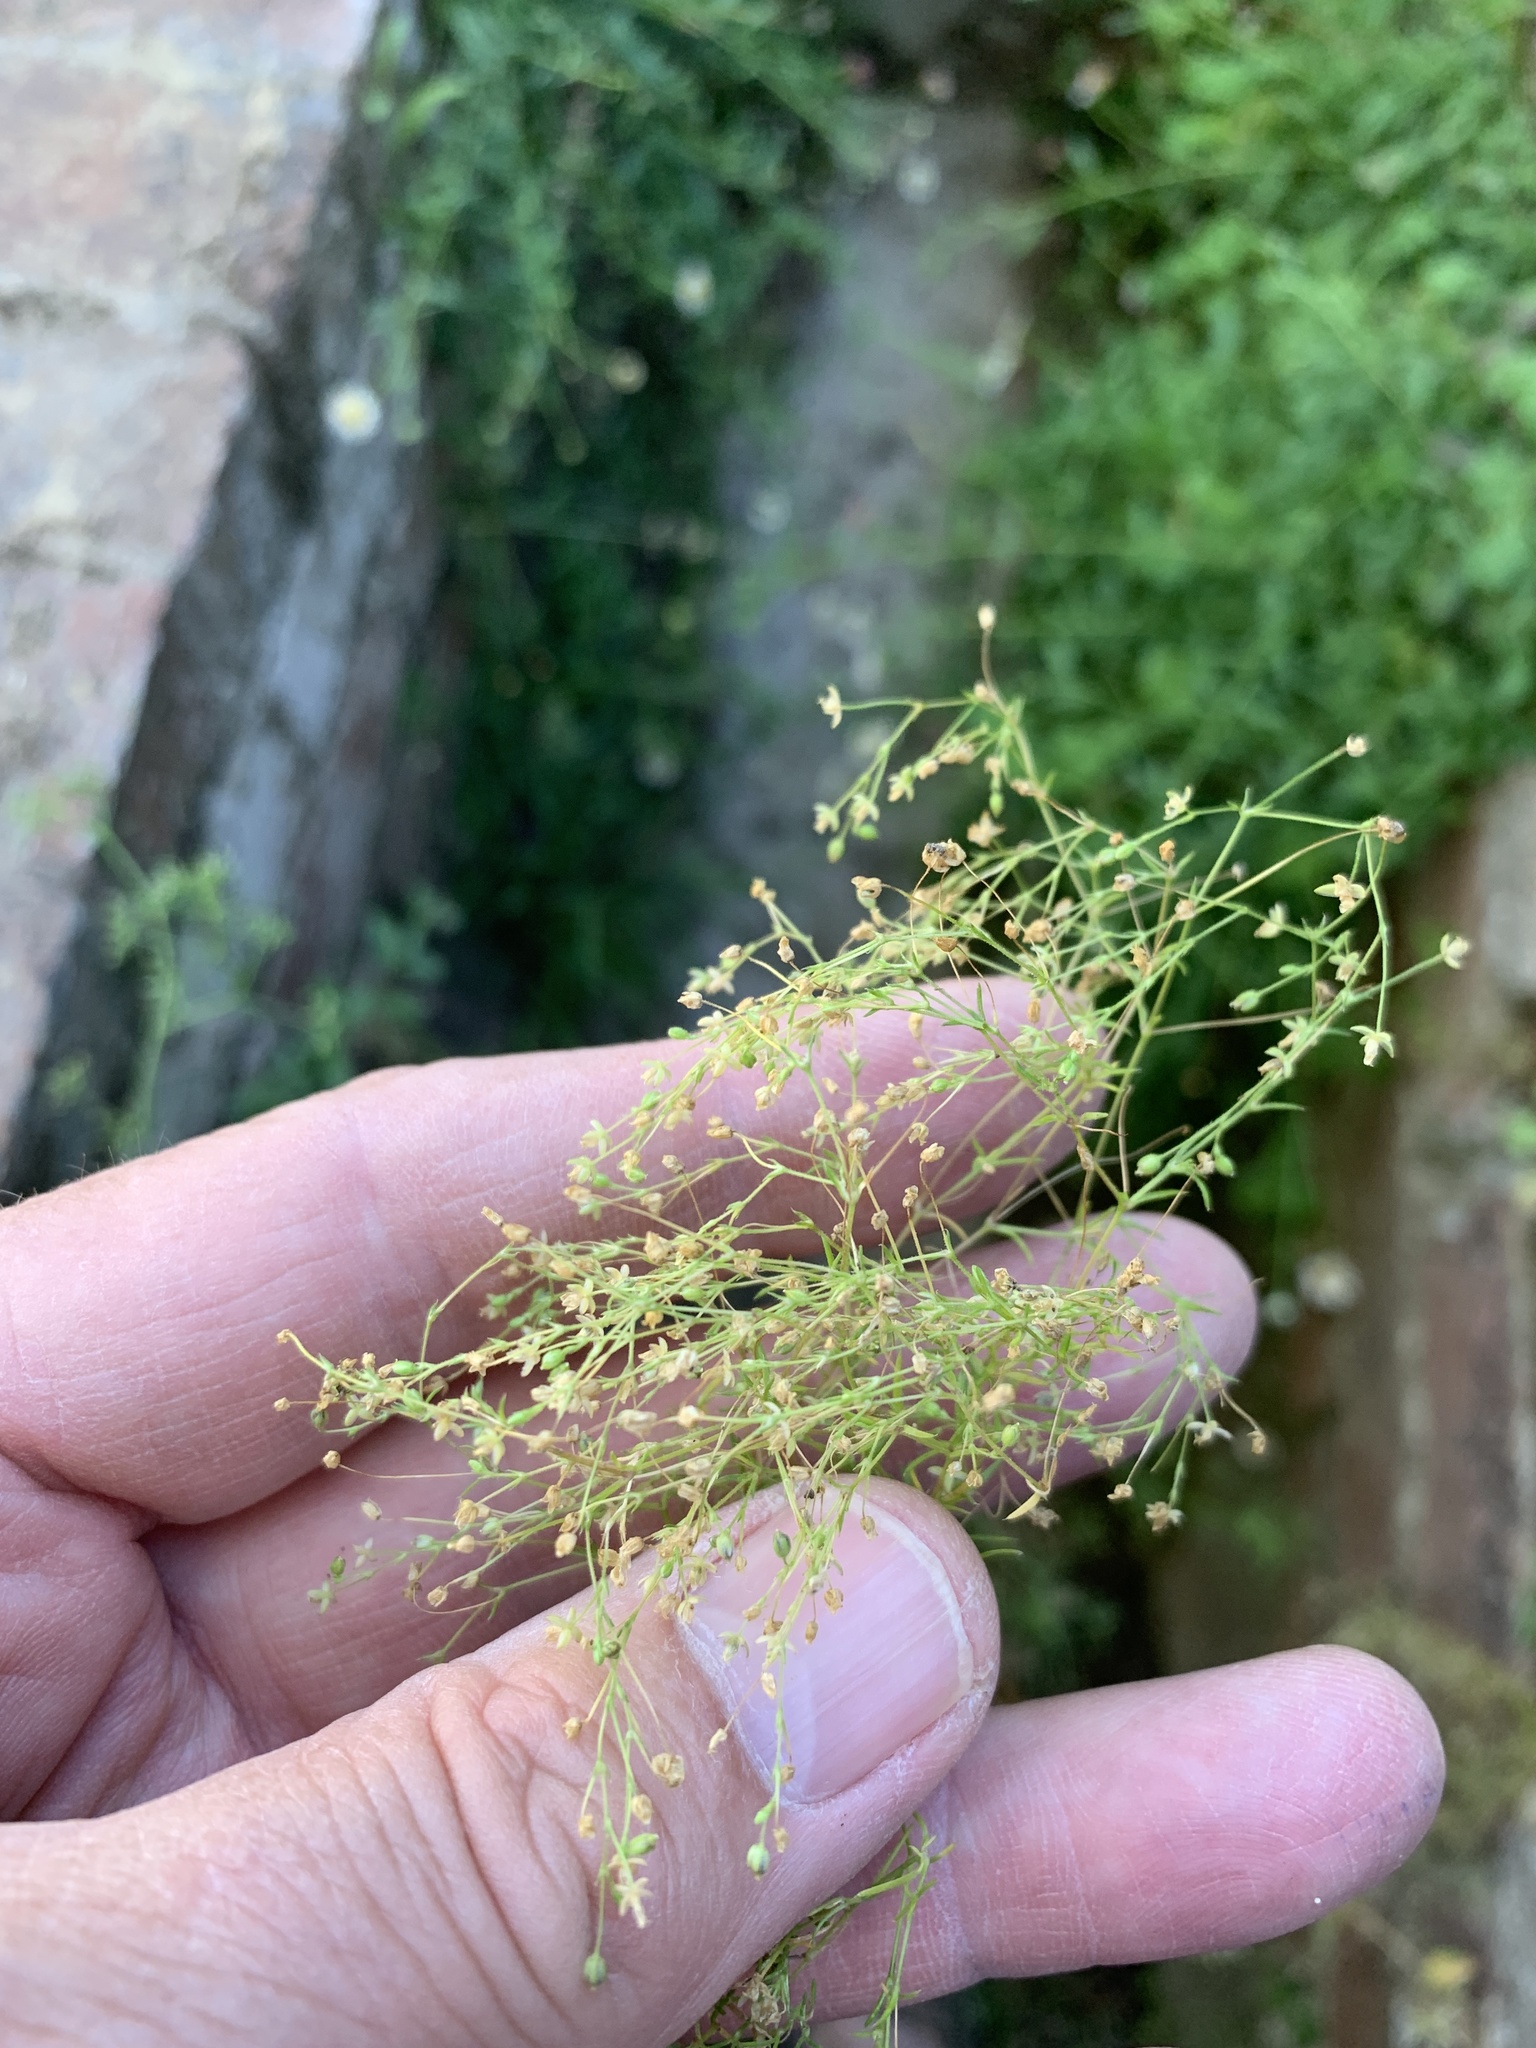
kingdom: Plantae
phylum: Tracheophyta
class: Magnoliopsida
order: Caryophyllales
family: Caryophyllaceae
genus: Sagina
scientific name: Sagina apetala
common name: Annual pearlwort
